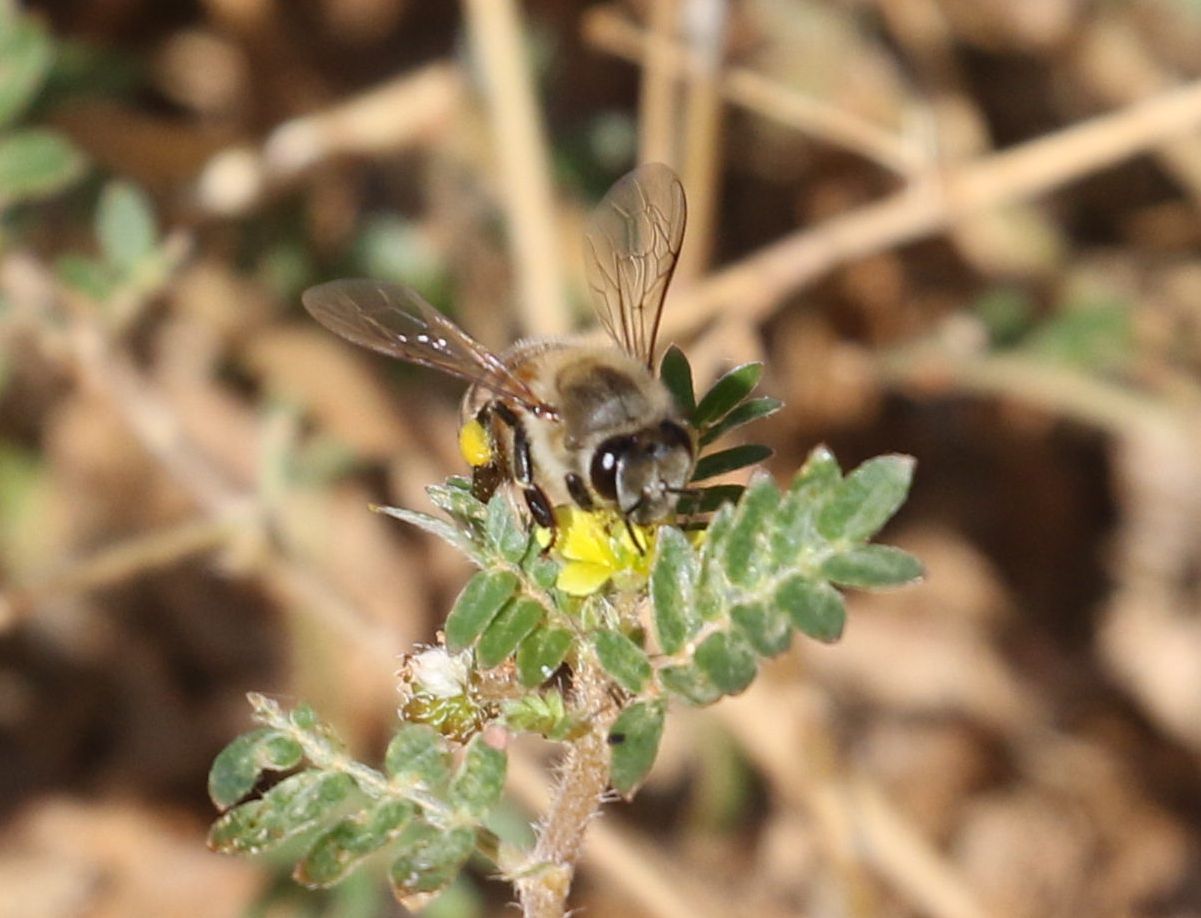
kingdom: Animalia
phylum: Arthropoda
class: Insecta
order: Hymenoptera
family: Apidae
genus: Apis
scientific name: Apis mellifera
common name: Honey bee
